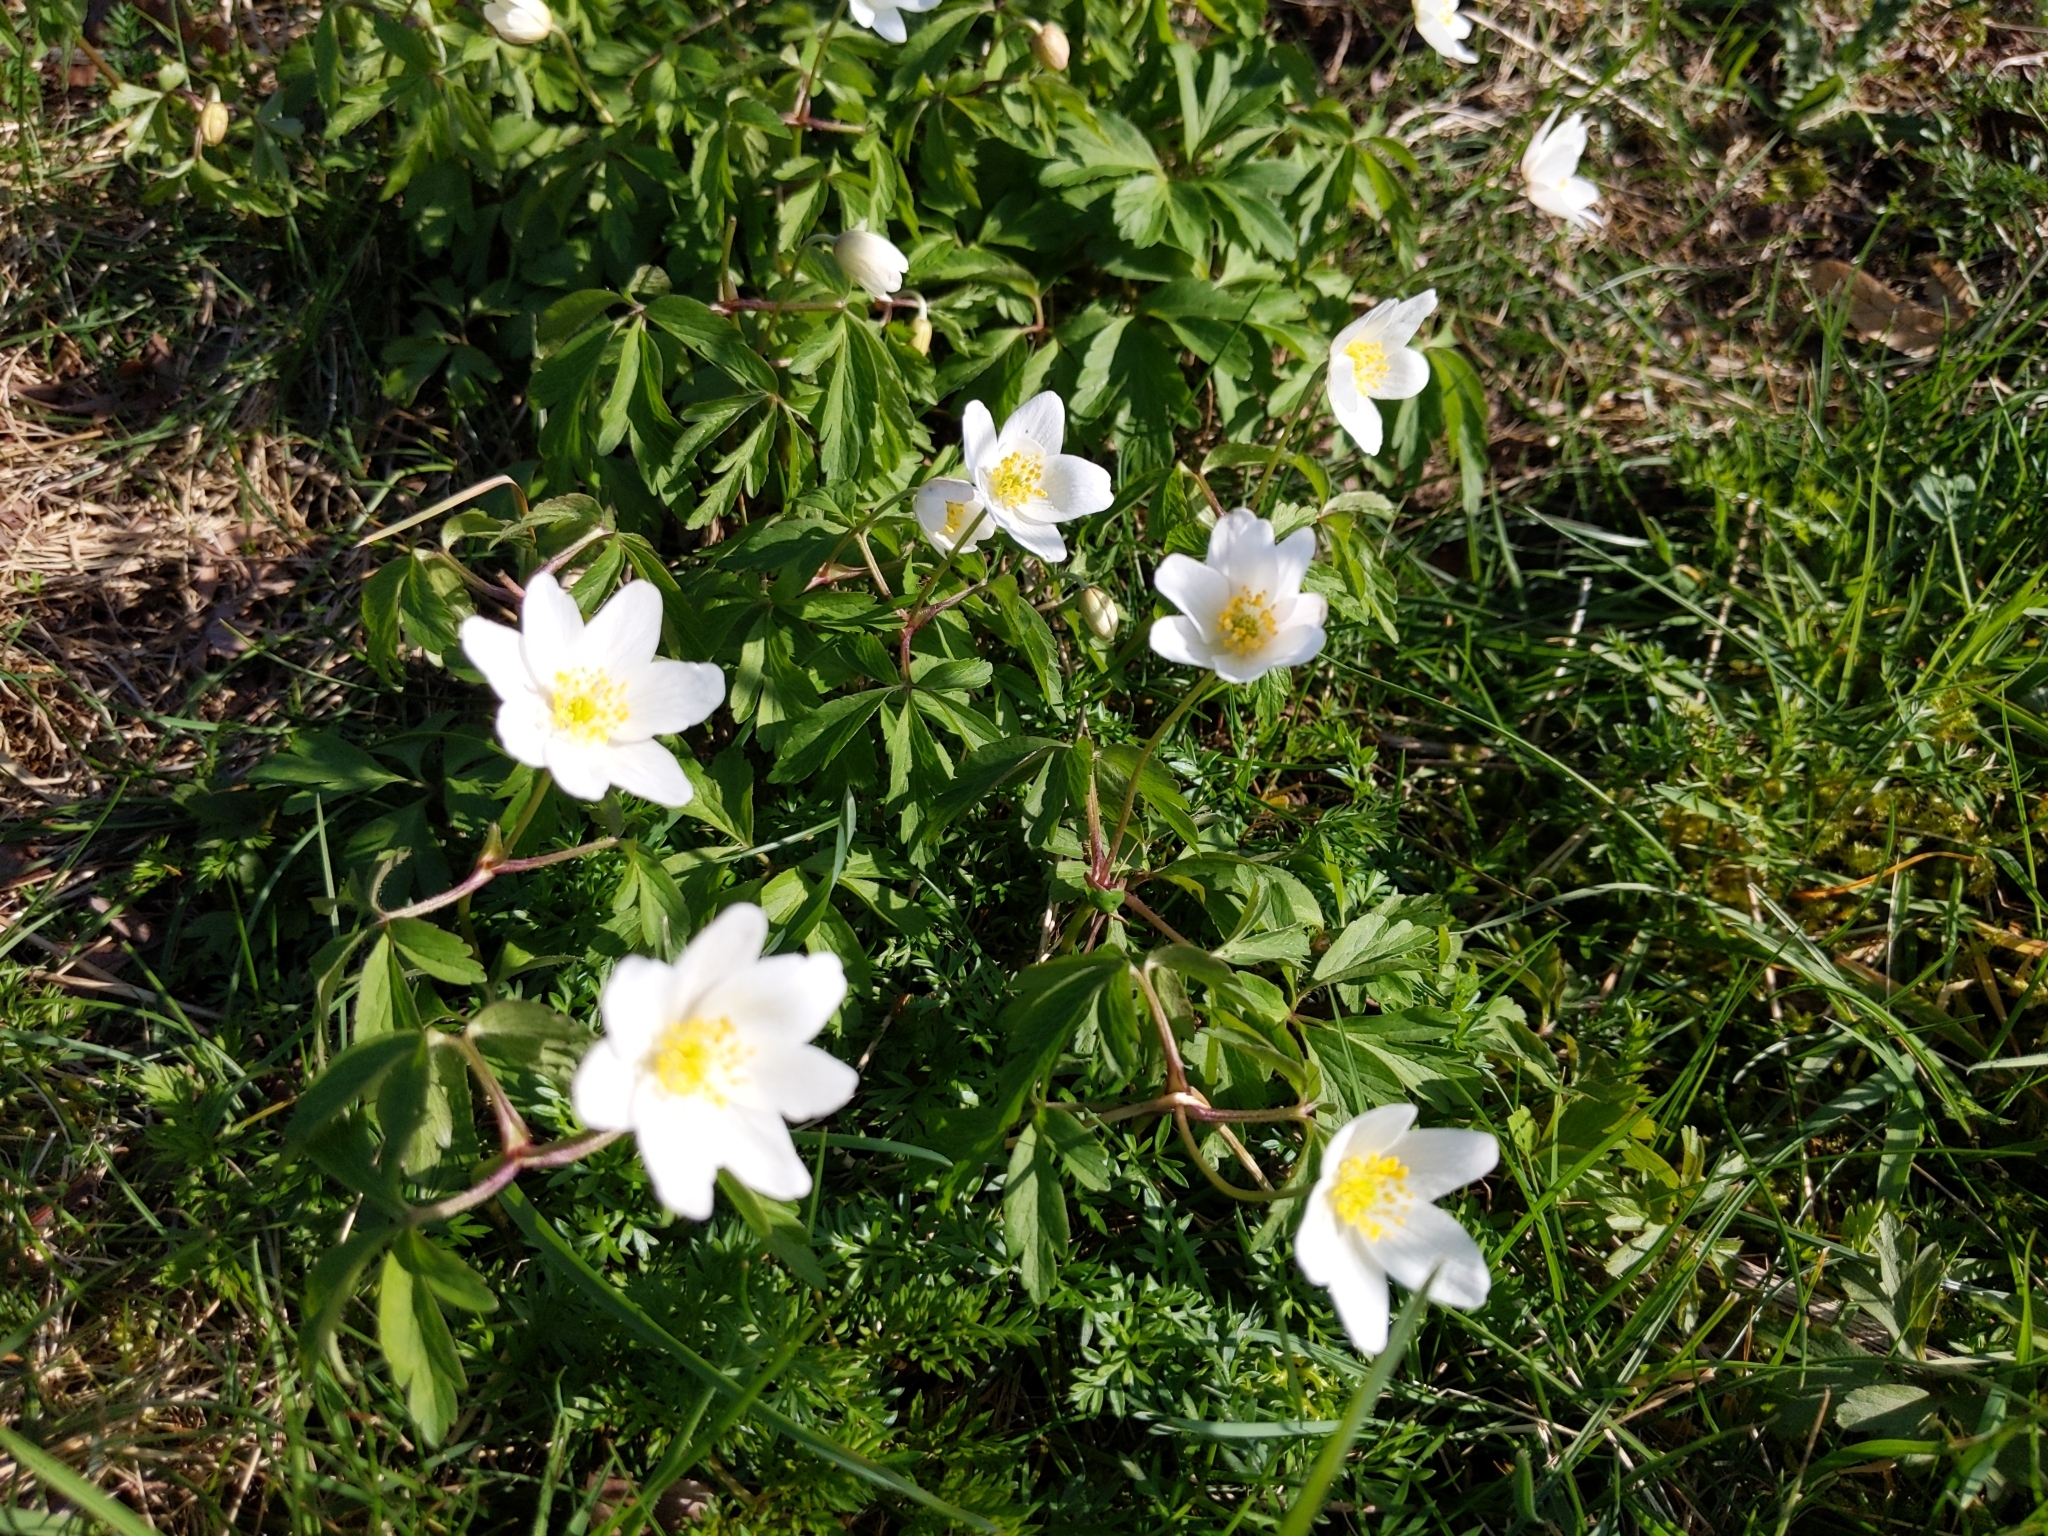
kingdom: Plantae
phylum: Tracheophyta
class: Magnoliopsida
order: Ranunculales
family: Ranunculaceae
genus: Anemone
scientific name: Anemone nemorosa
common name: Wood anemone
